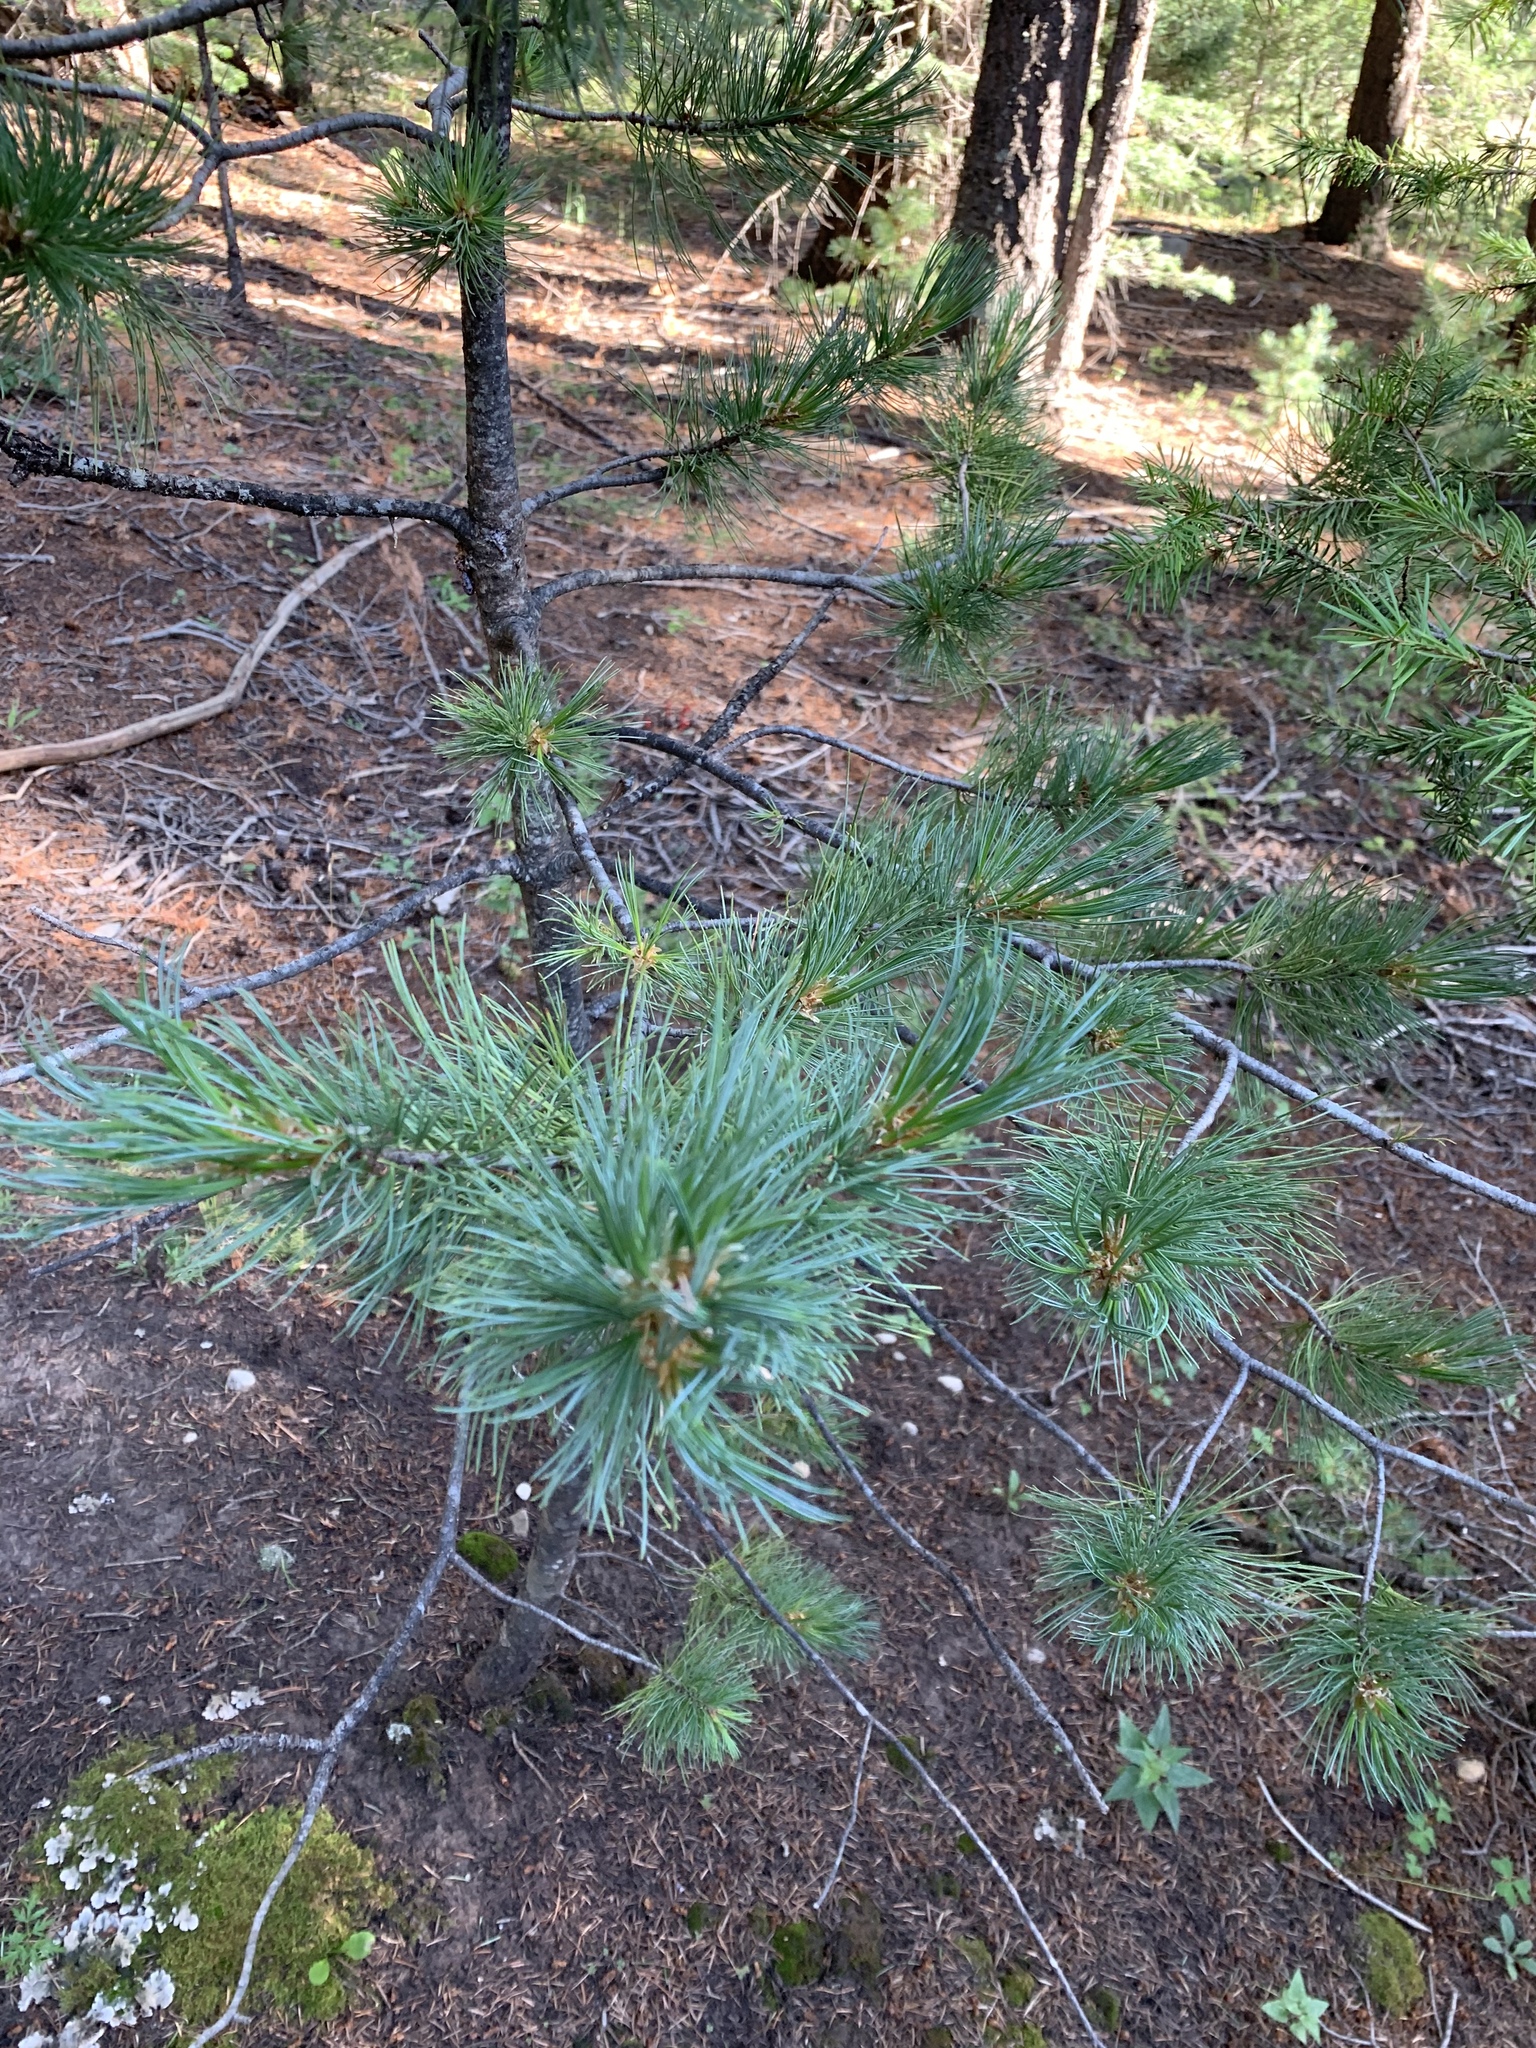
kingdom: Plantae
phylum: Tracheophyta
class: Pinopsida
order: Pinales
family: Pinaceae
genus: Pinus
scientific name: Pinus strobiformis
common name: Southwestern white pine
